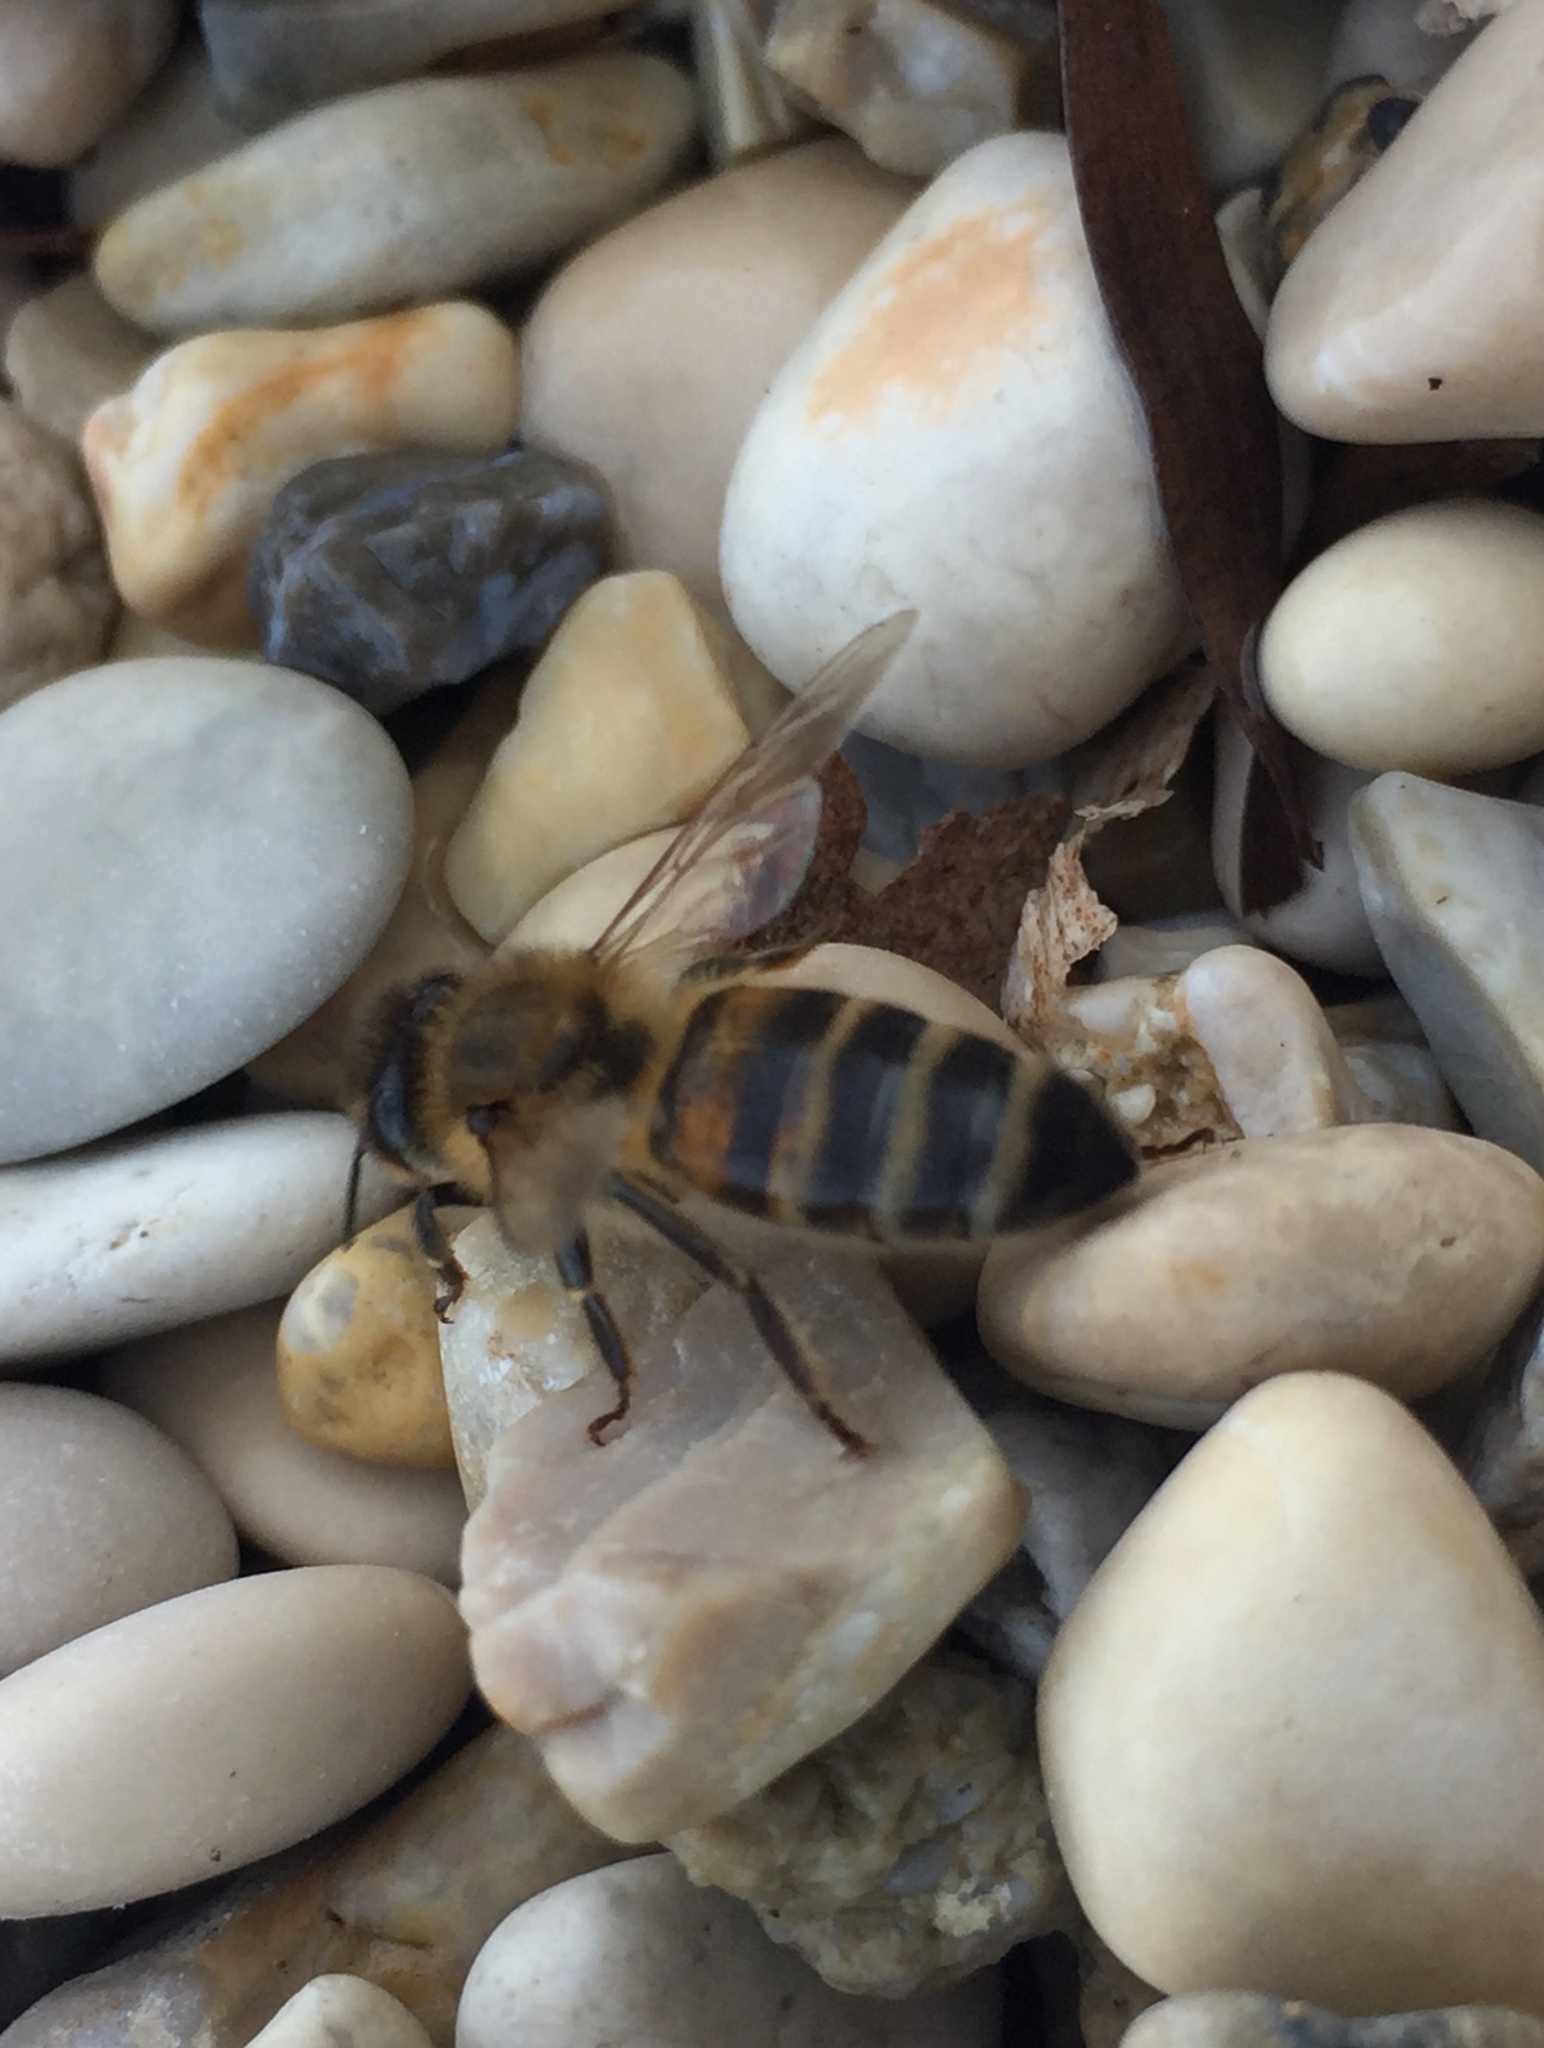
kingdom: Animalia
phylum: Arthropoda
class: Insecta
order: Hymenoptera
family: Apidae
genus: Apis
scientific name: Apis mellifera
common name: Honey bee
